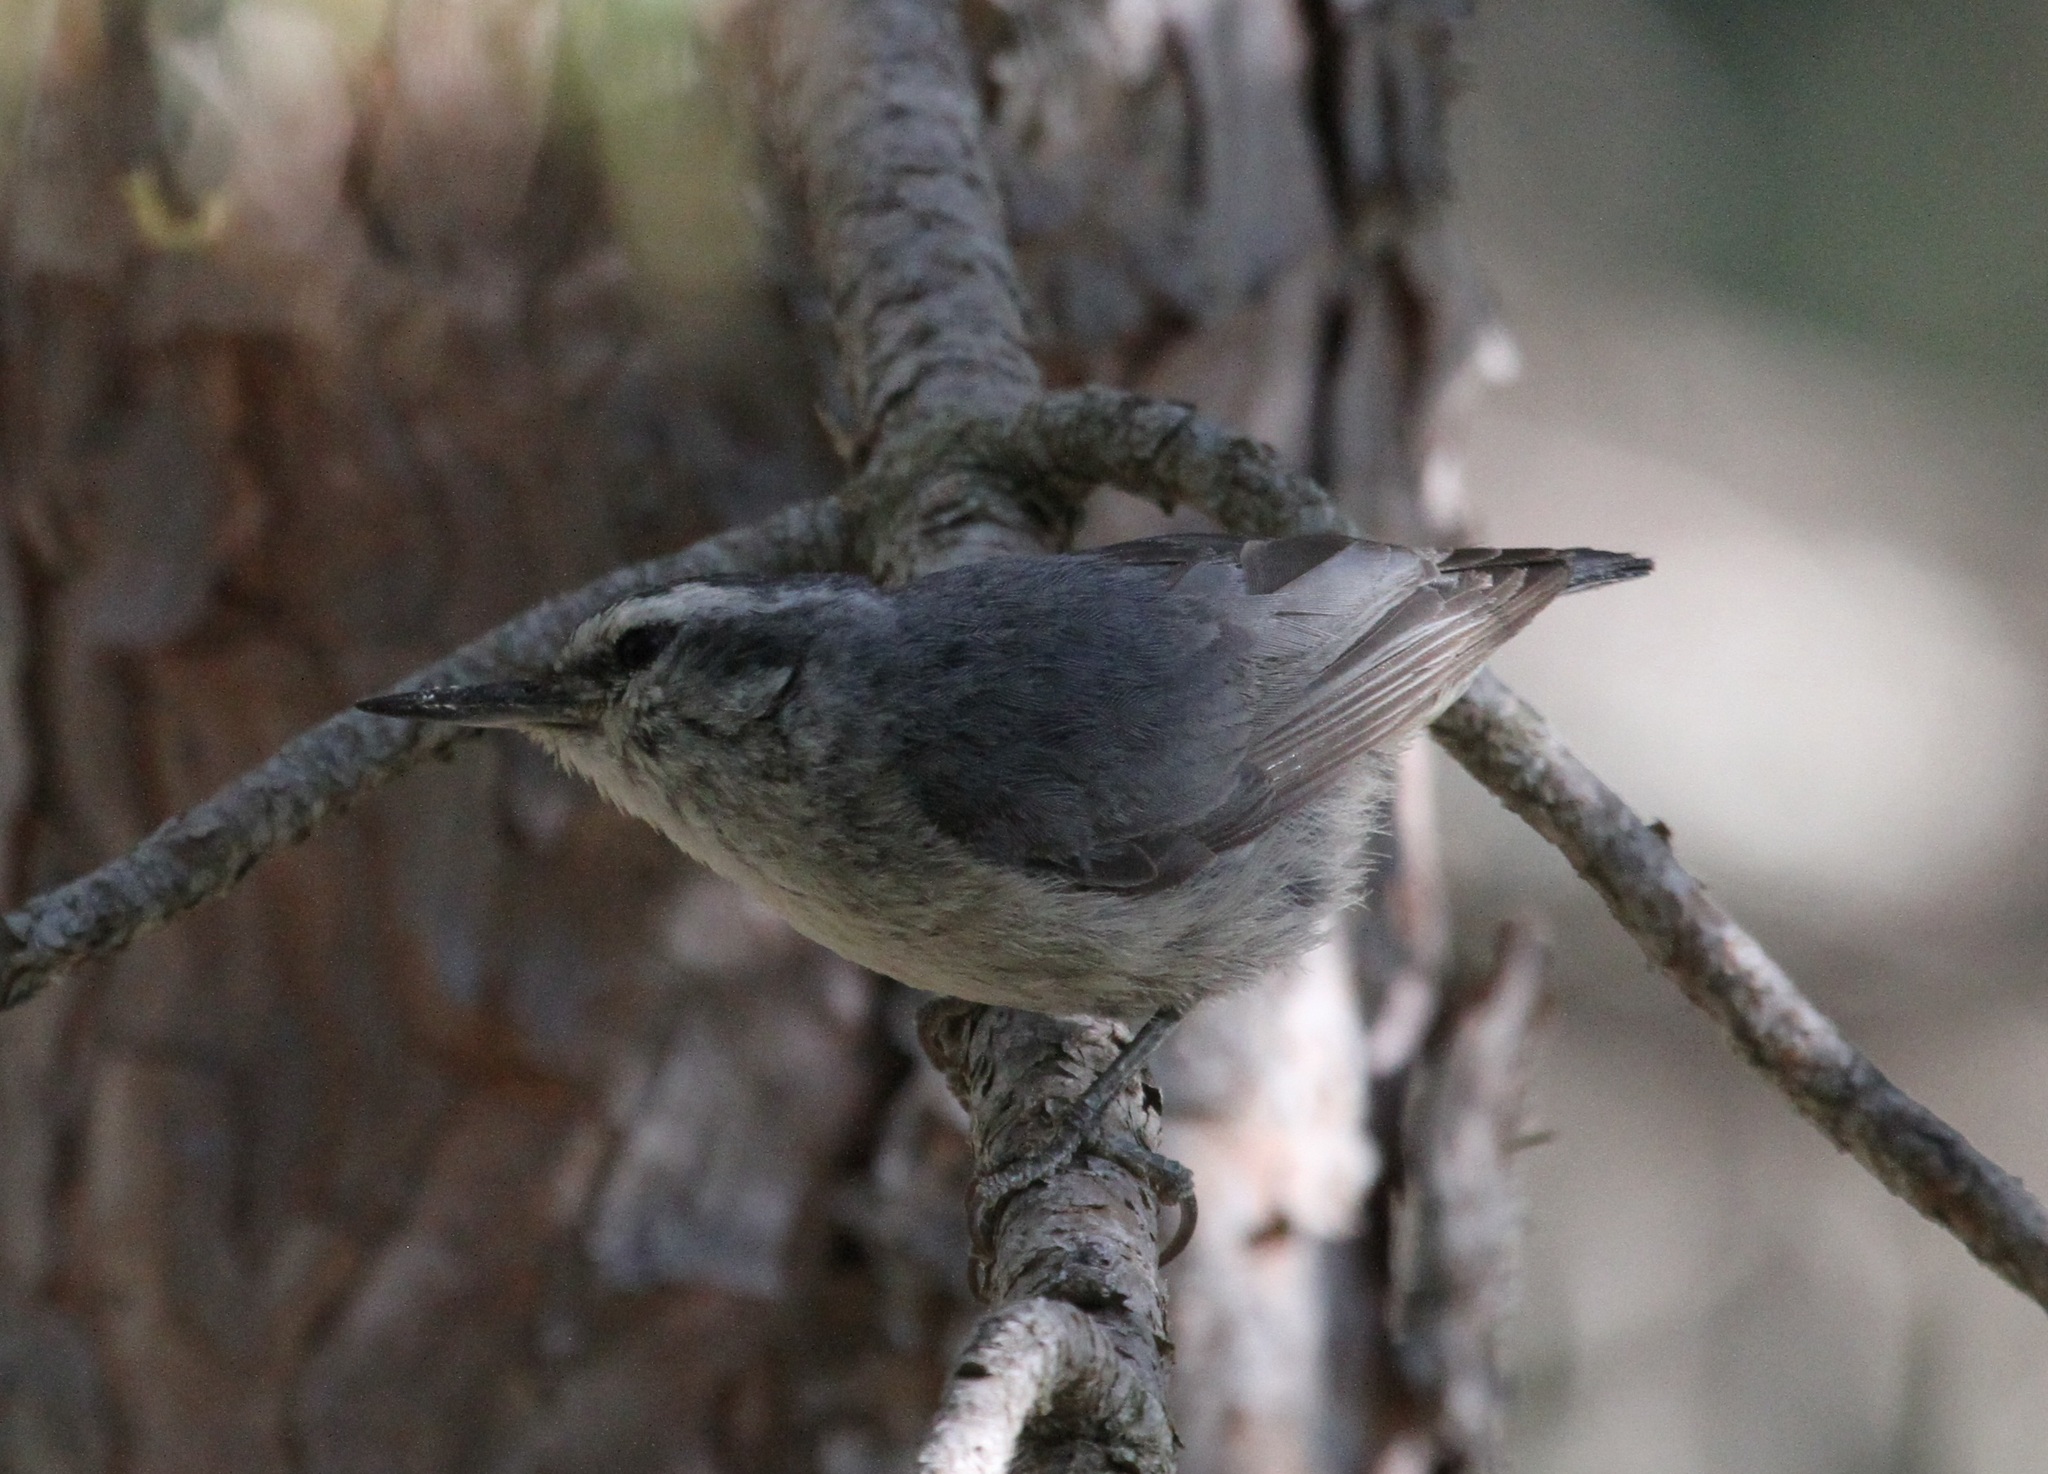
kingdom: Animalia
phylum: Chordata
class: Aves
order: Passeriformes
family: Sittidae
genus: Sitta
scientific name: Sitta whiteheadi
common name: Corsican nuthatch
